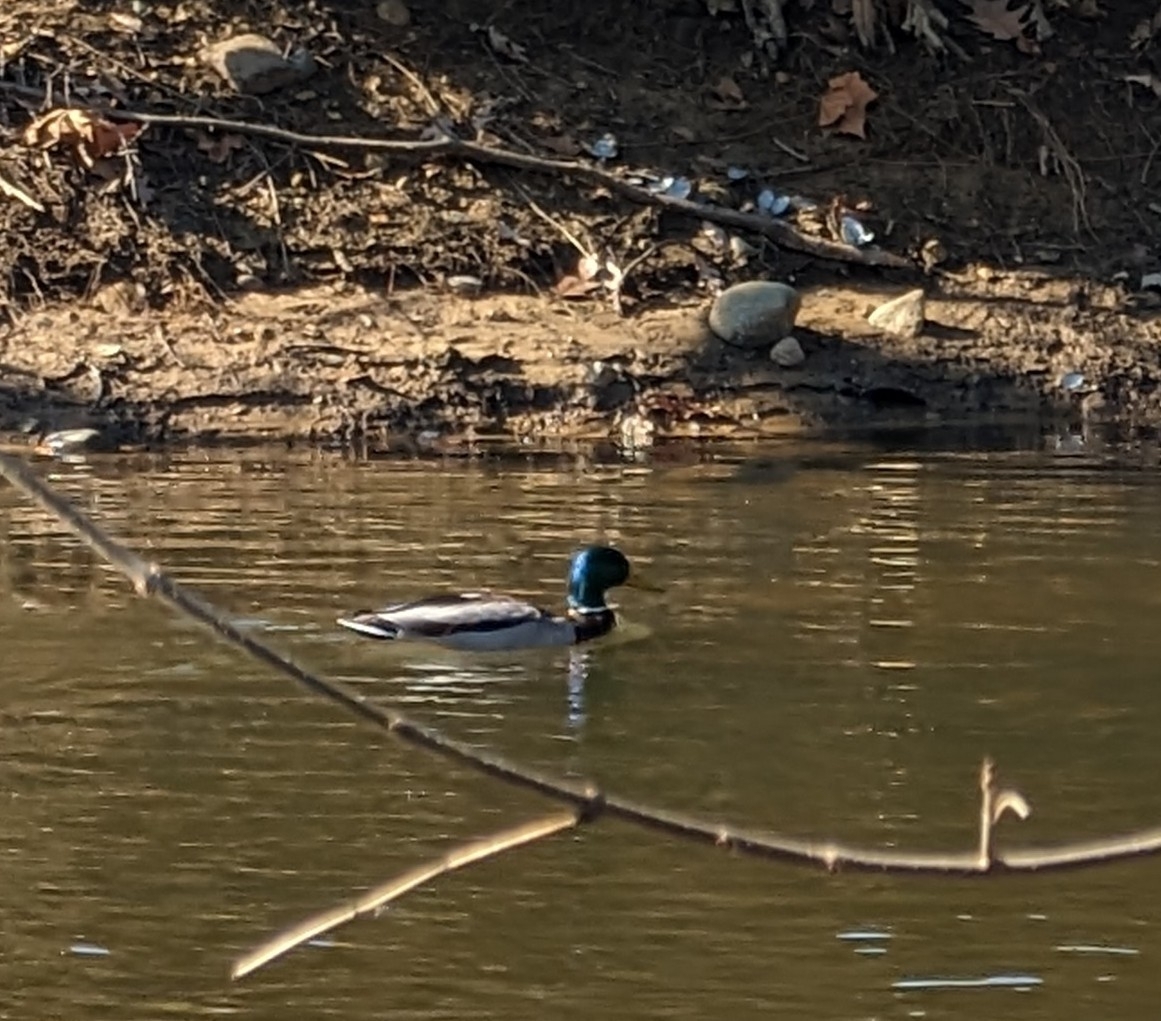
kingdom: Animalia
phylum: Chordata
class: Aves
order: Anseriformes
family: Anatidae
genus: Anas
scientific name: Anas platyrhynchos
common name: Mallard
